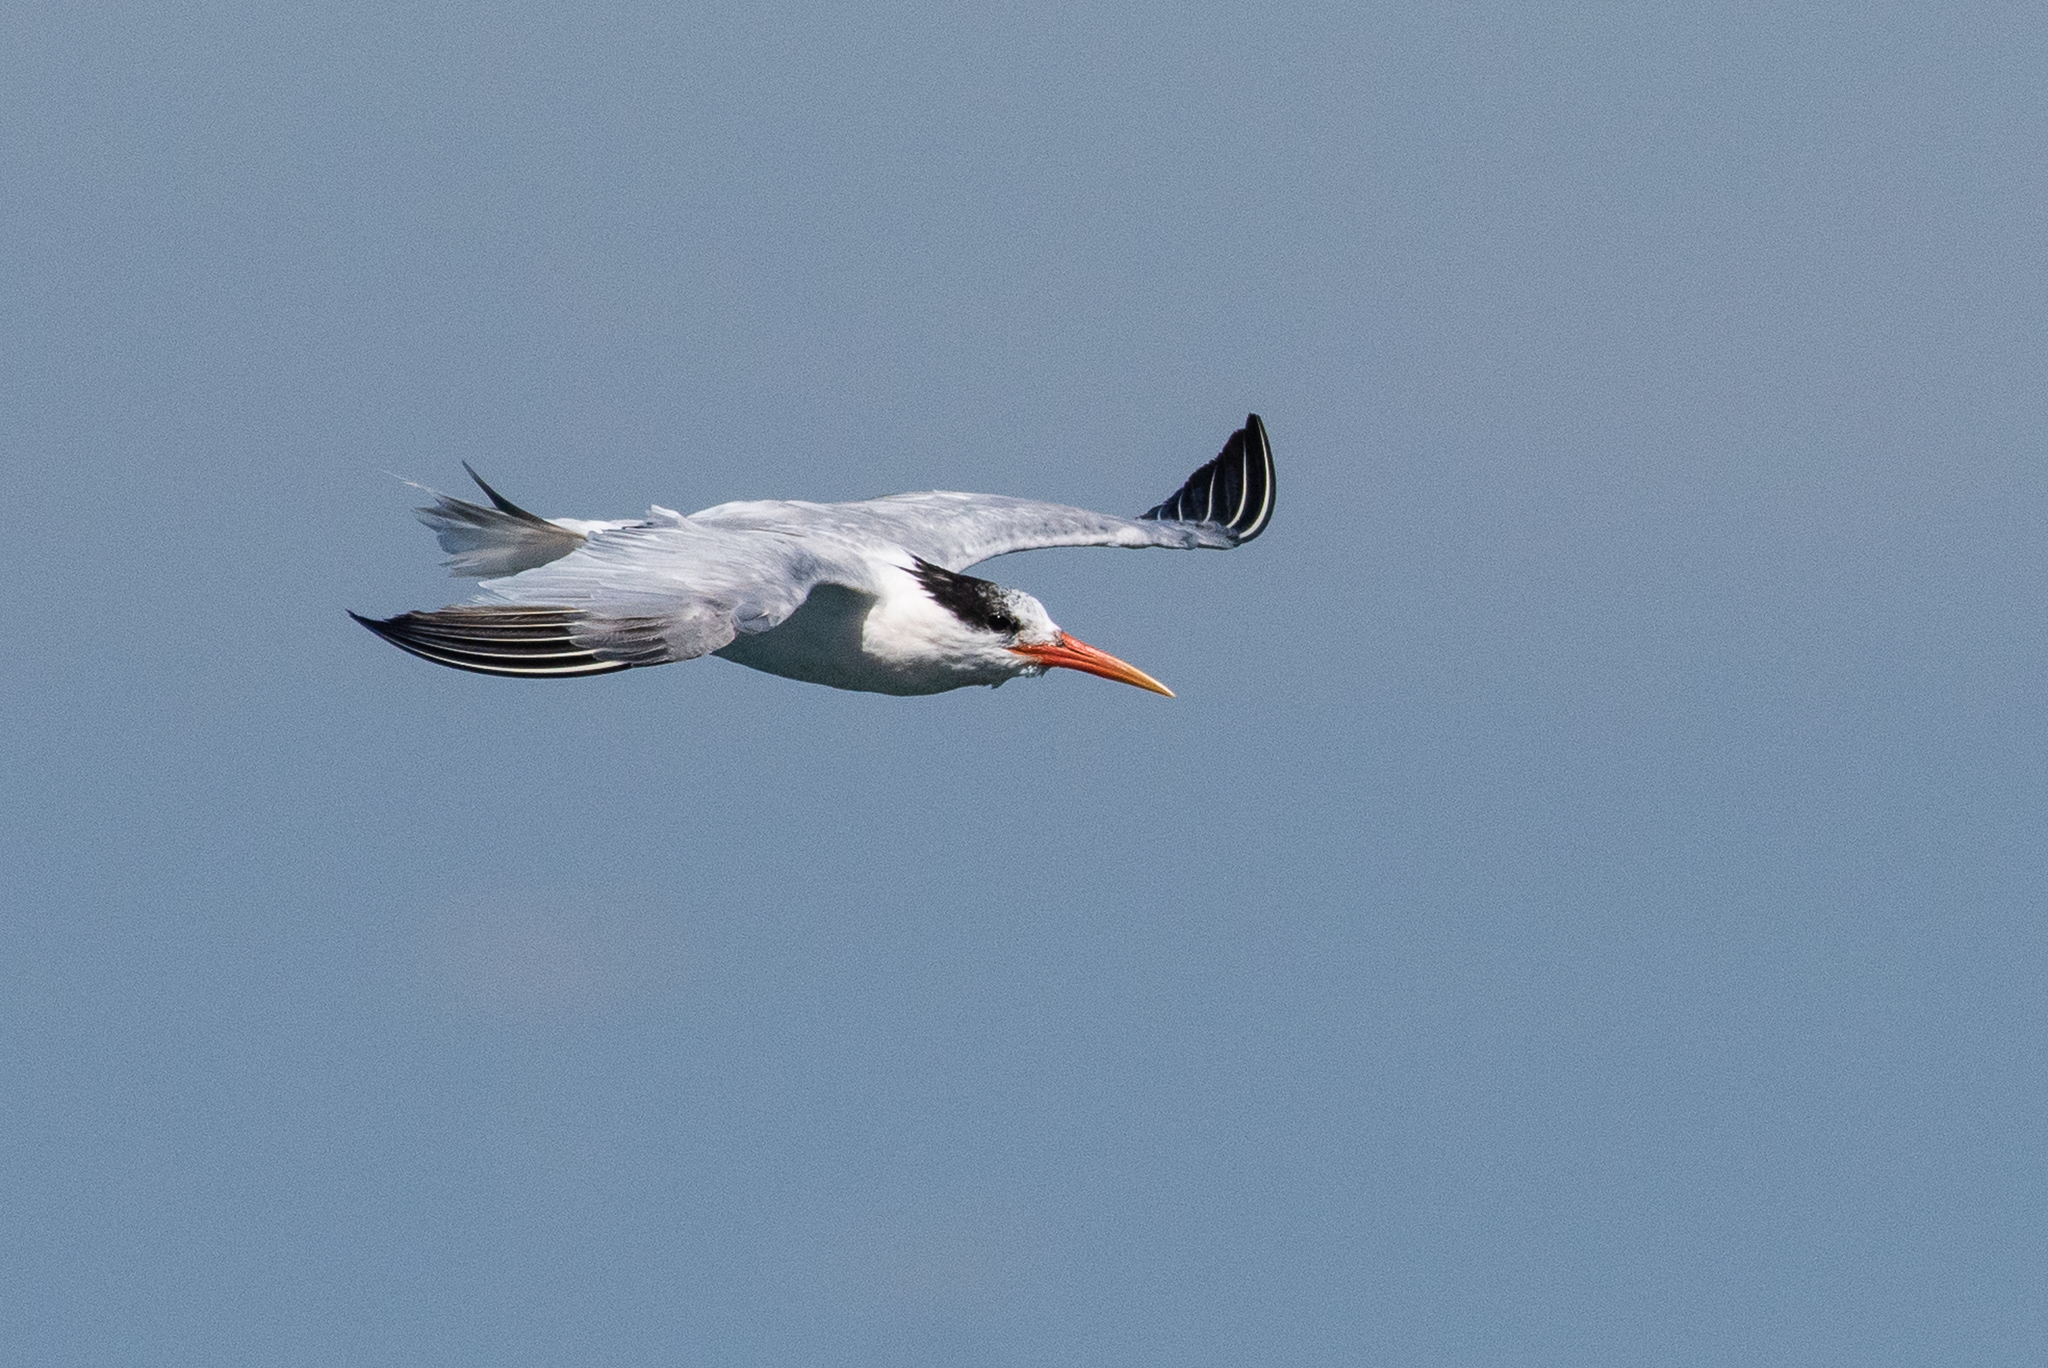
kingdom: Animalia
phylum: Chordata
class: Aves
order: Charadriiformes
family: Laridae
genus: Thalasseus
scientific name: Thalasseus elegans
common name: Elegant tern
